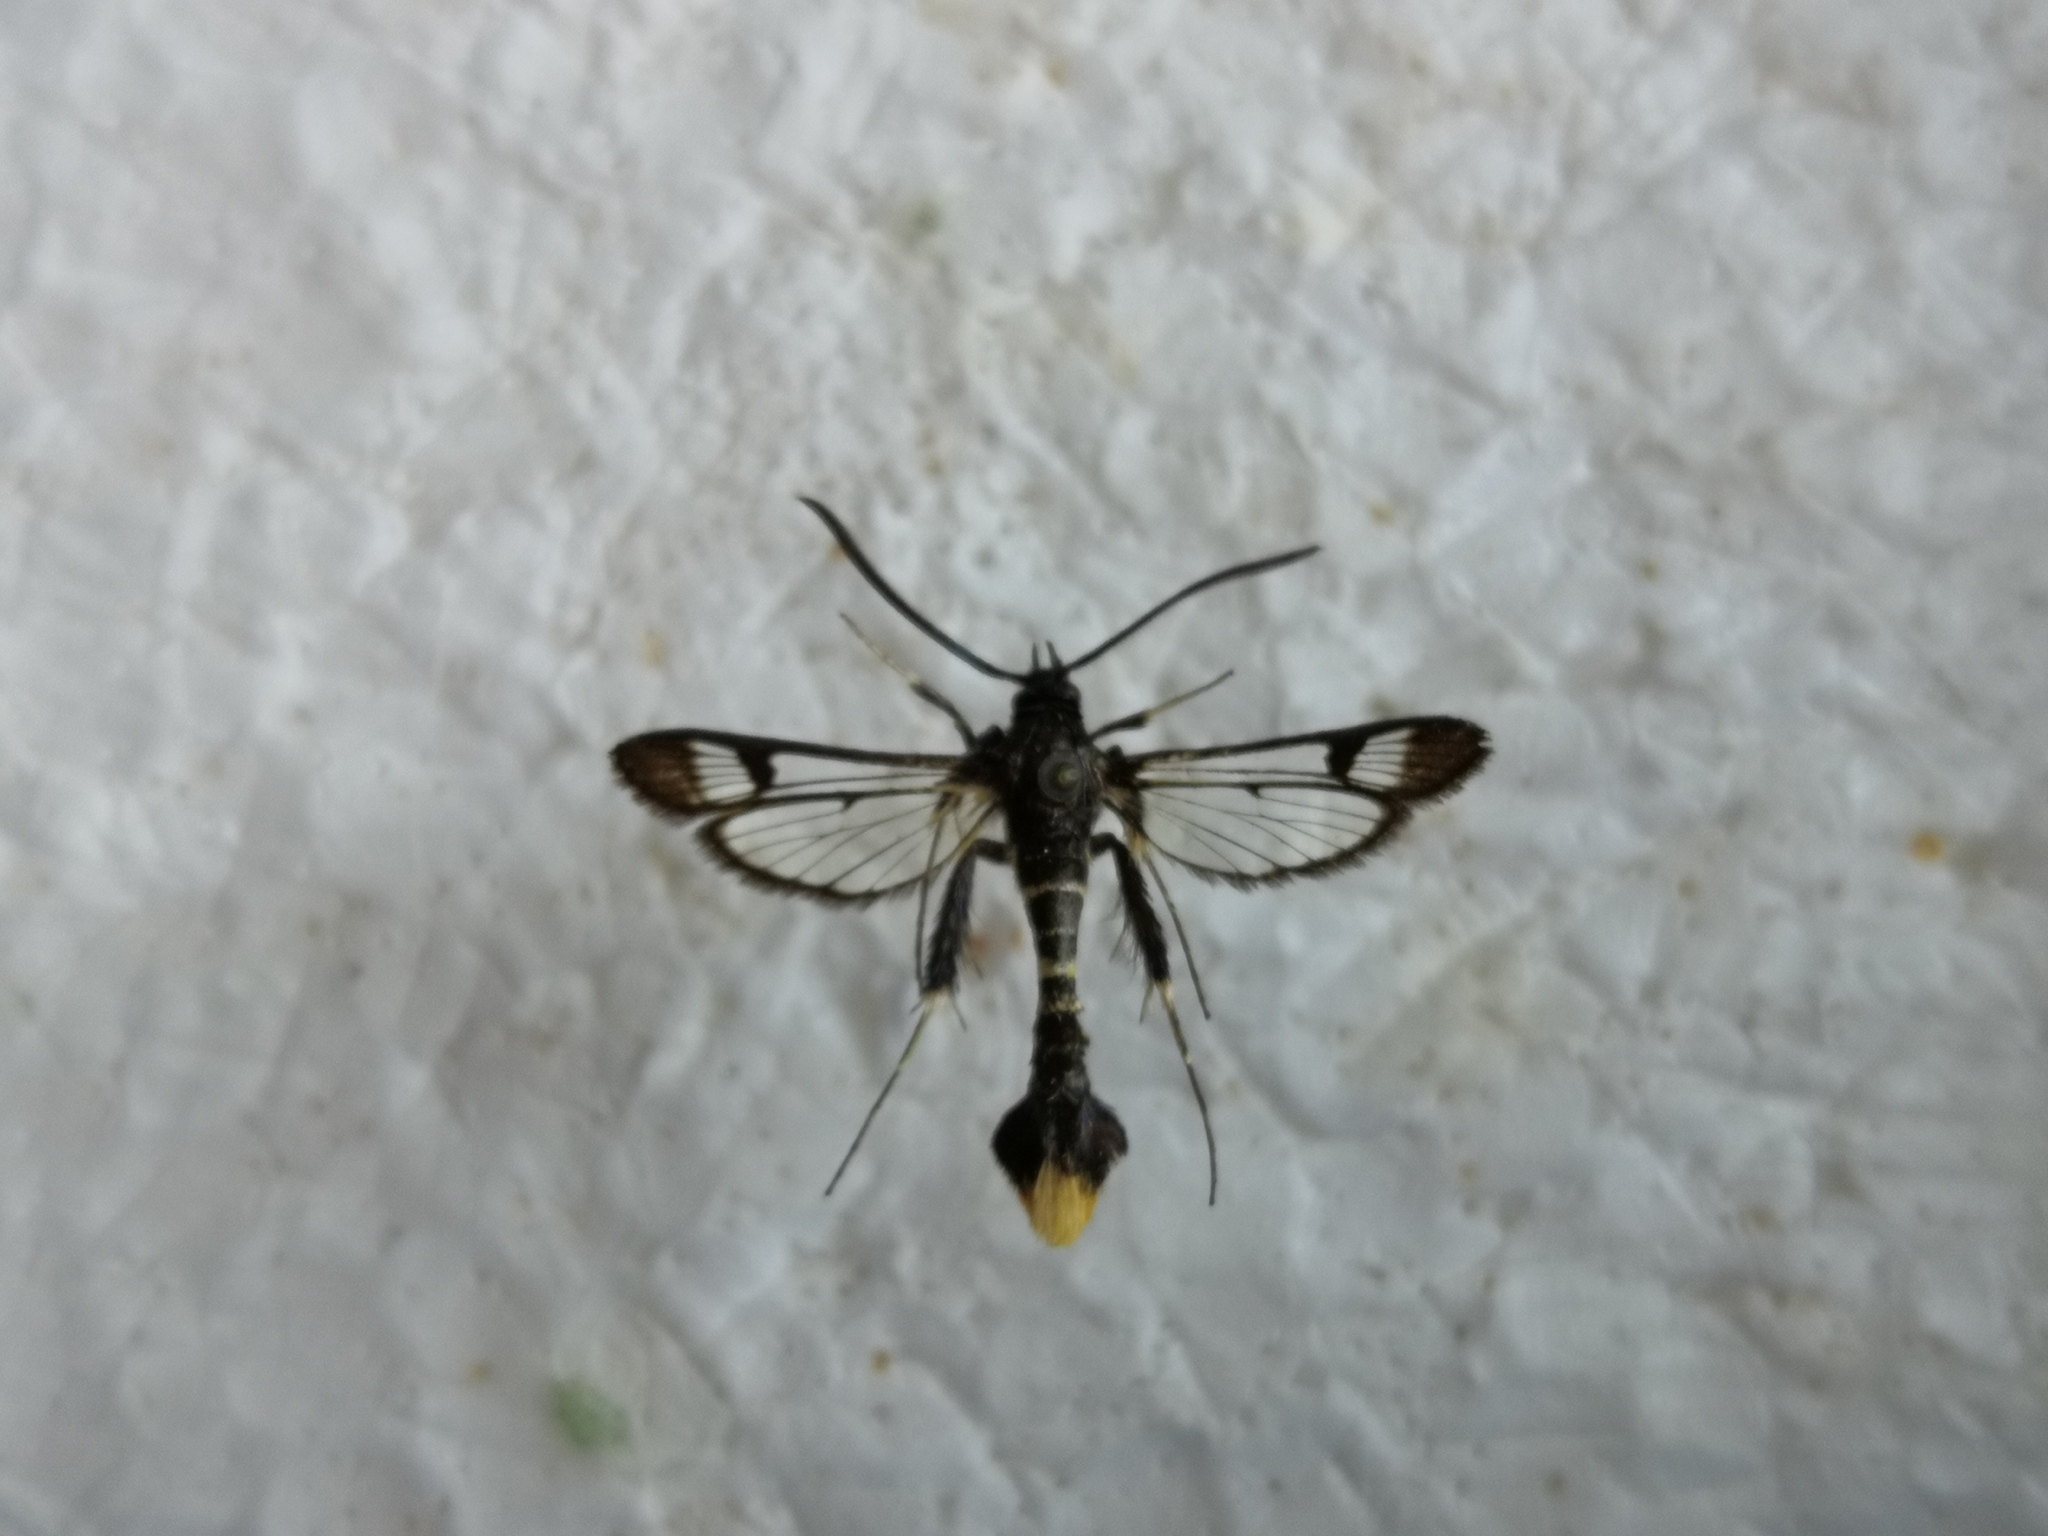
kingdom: Animalia
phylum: Arthropoda
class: Insecta
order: Lepidoptera
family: Sesiidae
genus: Synanthedon
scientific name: Synanthedon andrenaeformis
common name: Orange-tailed clearwing
